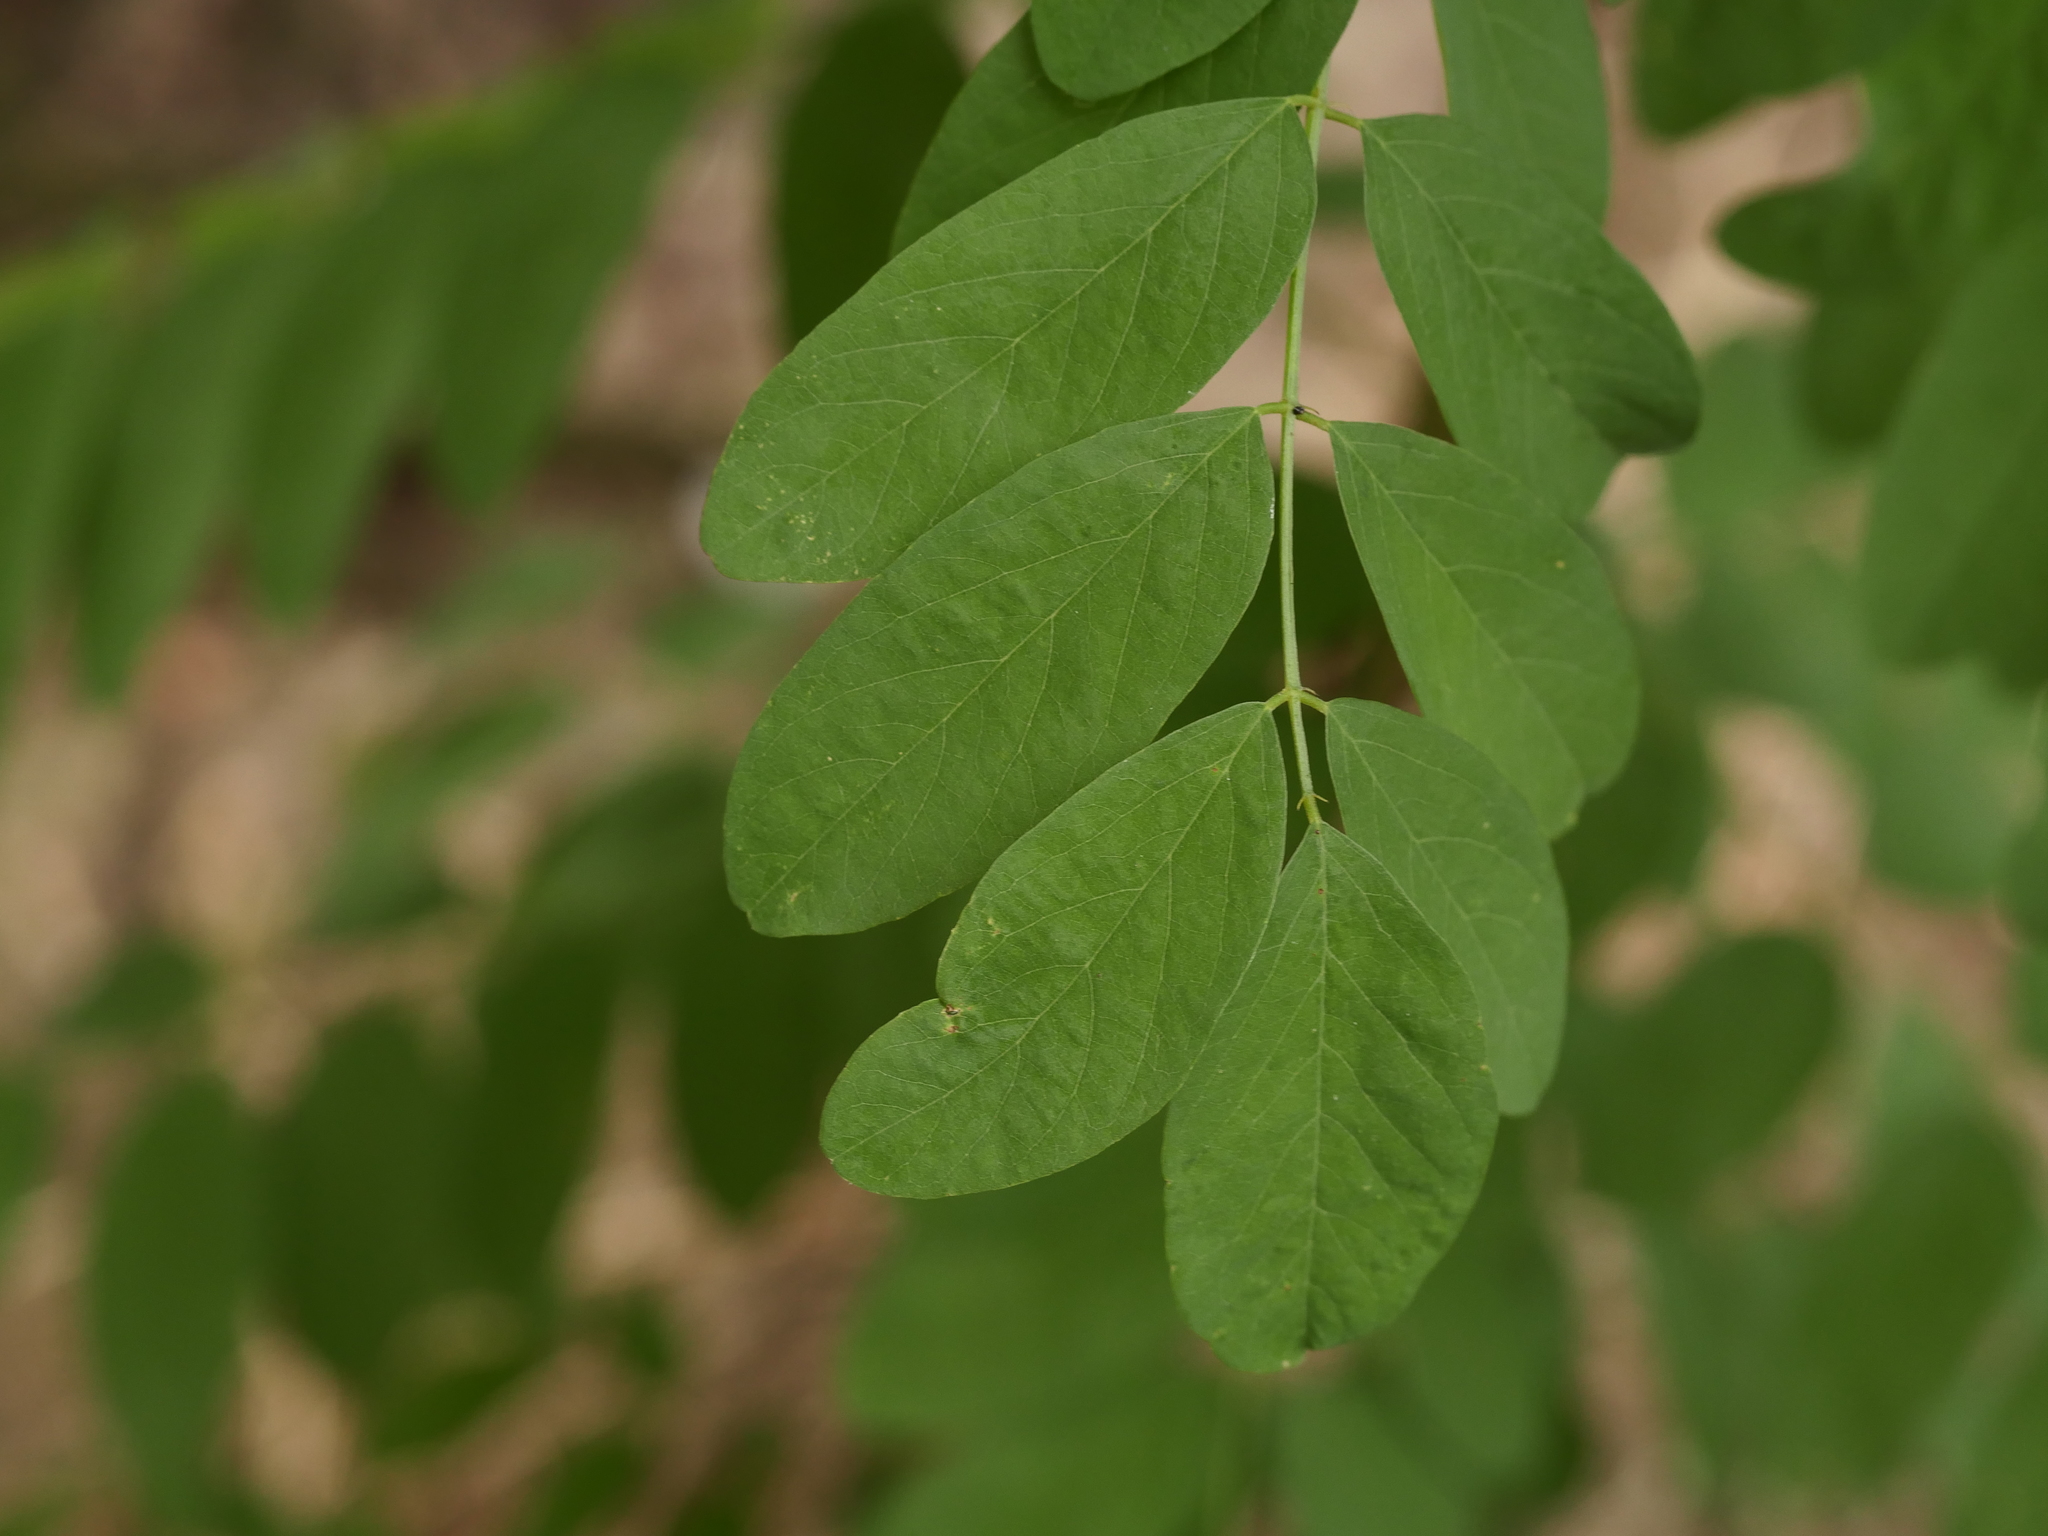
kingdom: Plantae
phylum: Tracheophyta
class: Magnoliopsida
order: Fabales
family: Fabaceae
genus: Robinia
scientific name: Robinia pseudoacacia
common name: Black locust
